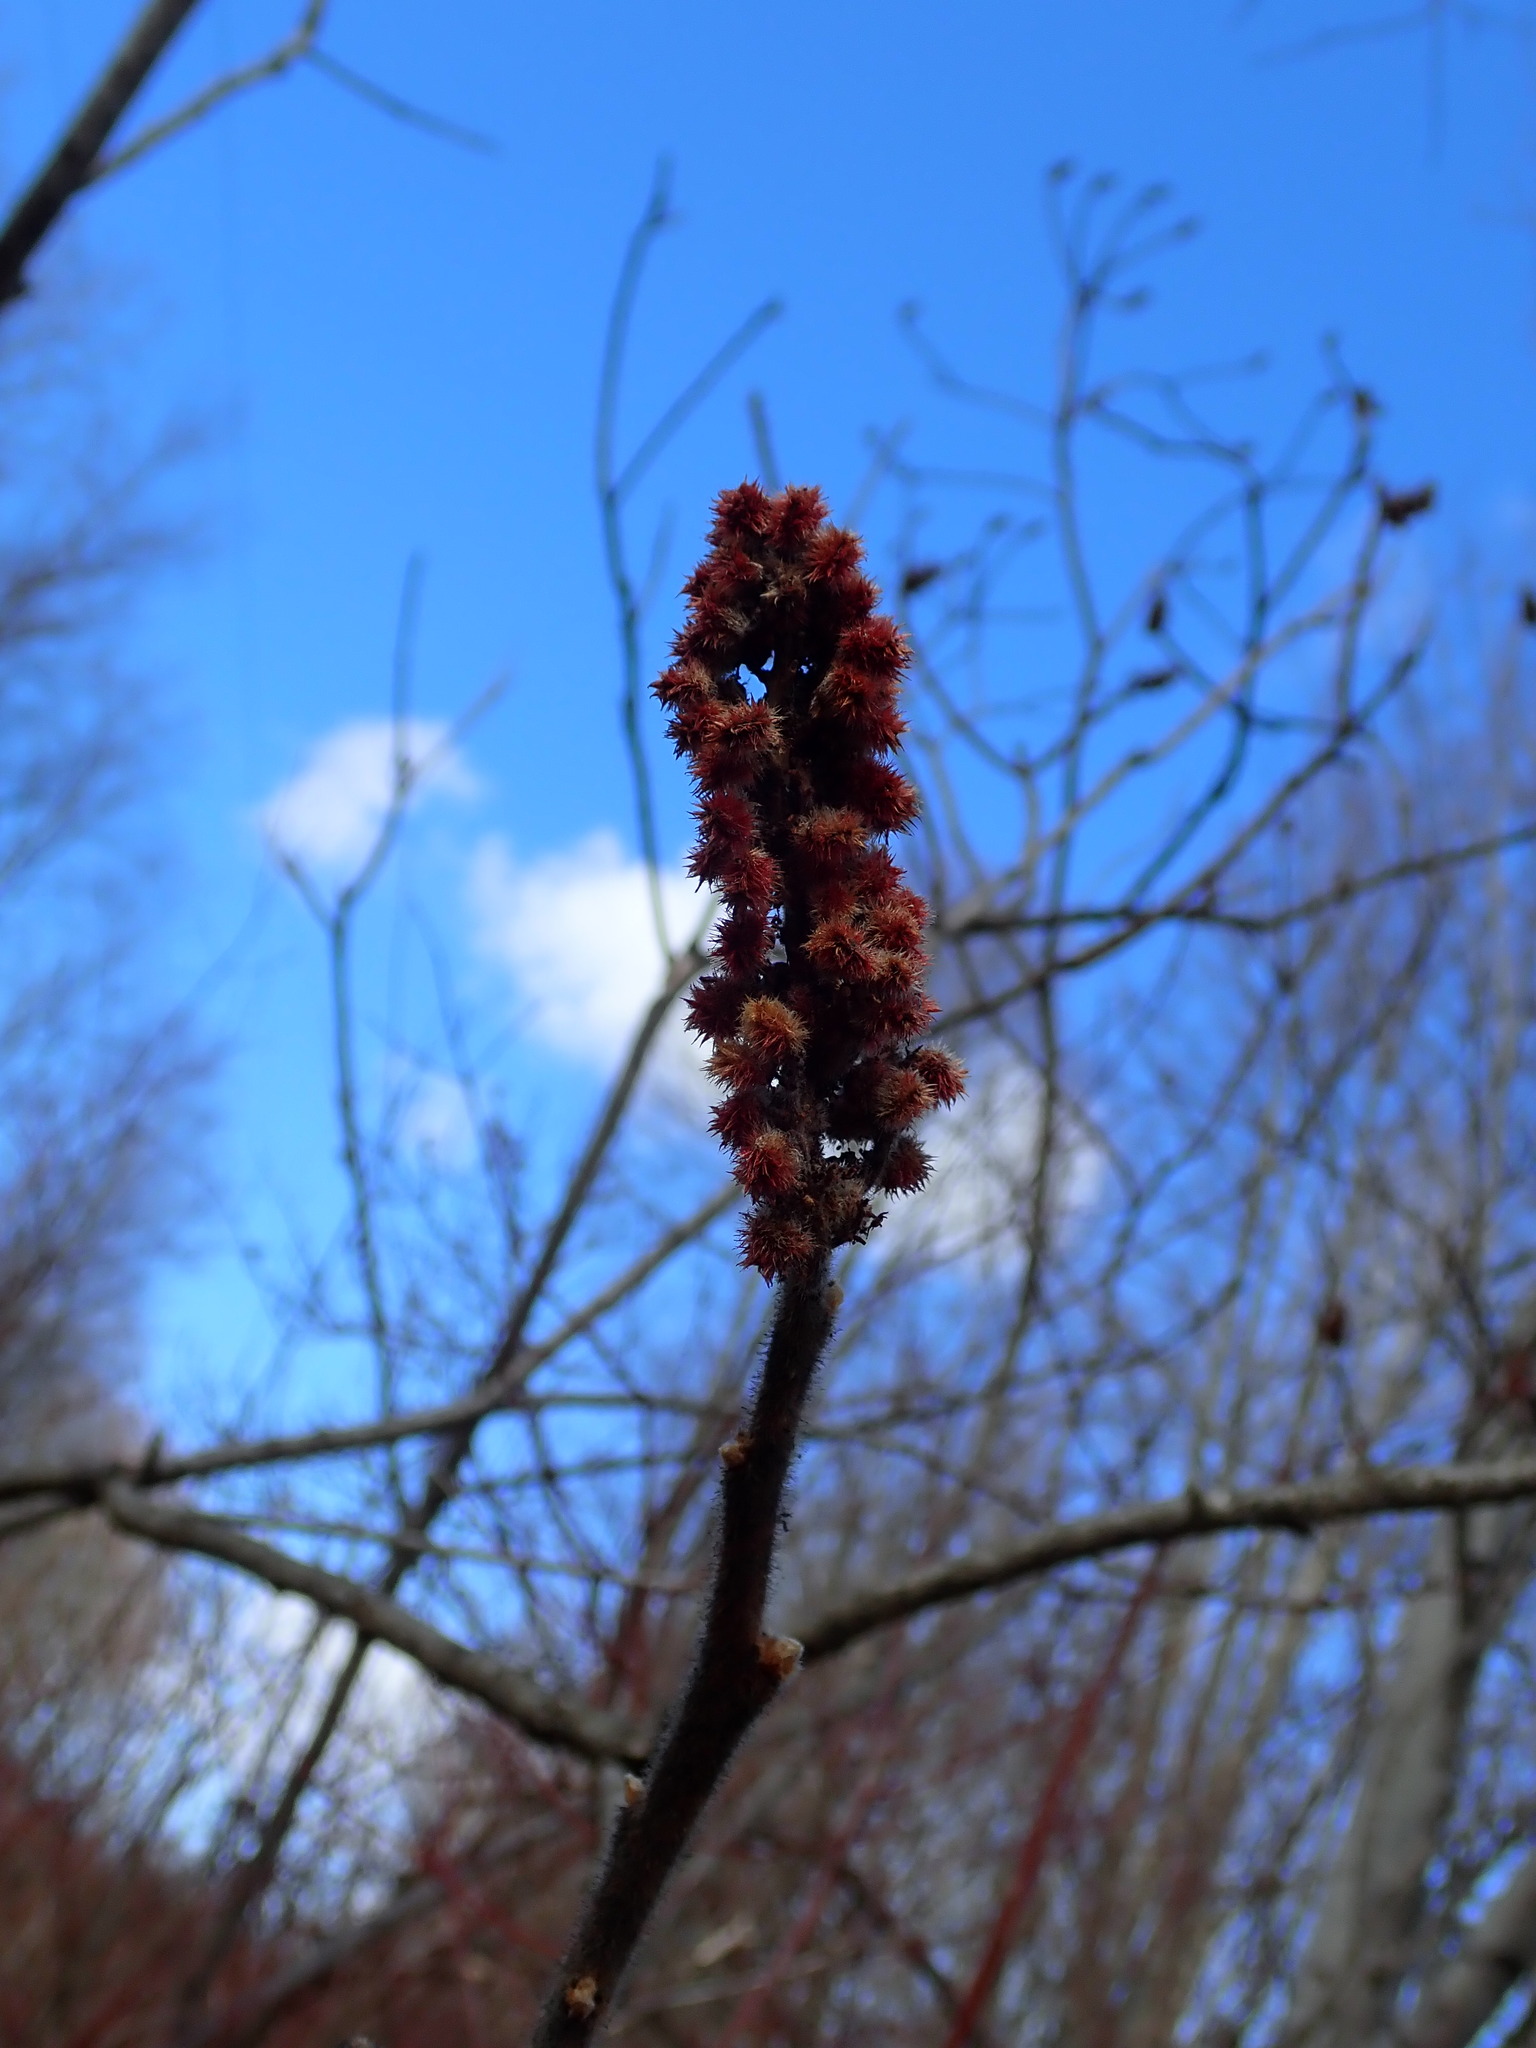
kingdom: Plantae
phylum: Tracheophyta
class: Magnoliopsida
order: Sapindales
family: Anacardiaceae
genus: Rhus
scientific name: Rhus typhina
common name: Staghorn sumac
